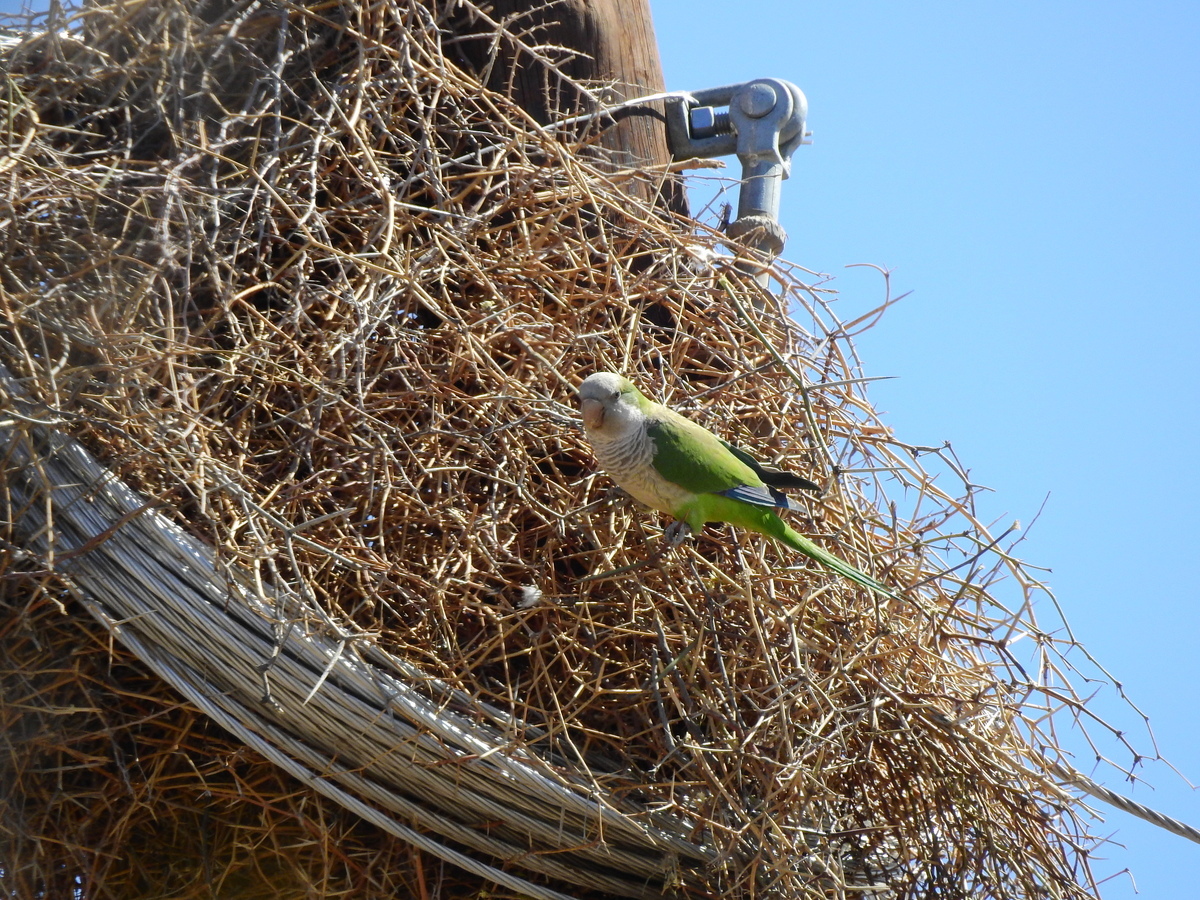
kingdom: Animalia
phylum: Chordata
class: Aves
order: Psittaciformes
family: Psittacidae
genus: Myiopsitta
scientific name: Myiopsitta monachus
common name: Monk parakeet
